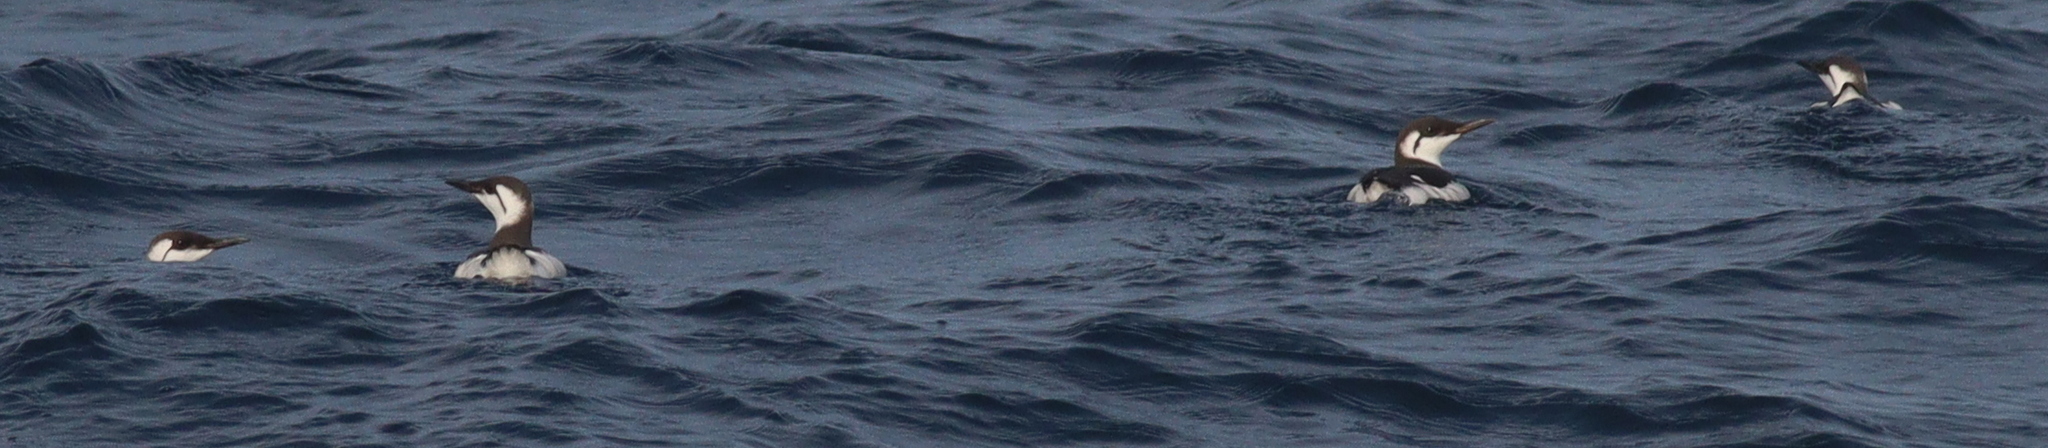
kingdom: Animalia
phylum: Chordata
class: Aves
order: Charadriiformes
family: Alcidae
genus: Uria
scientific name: Uria aalge
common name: Common murre
